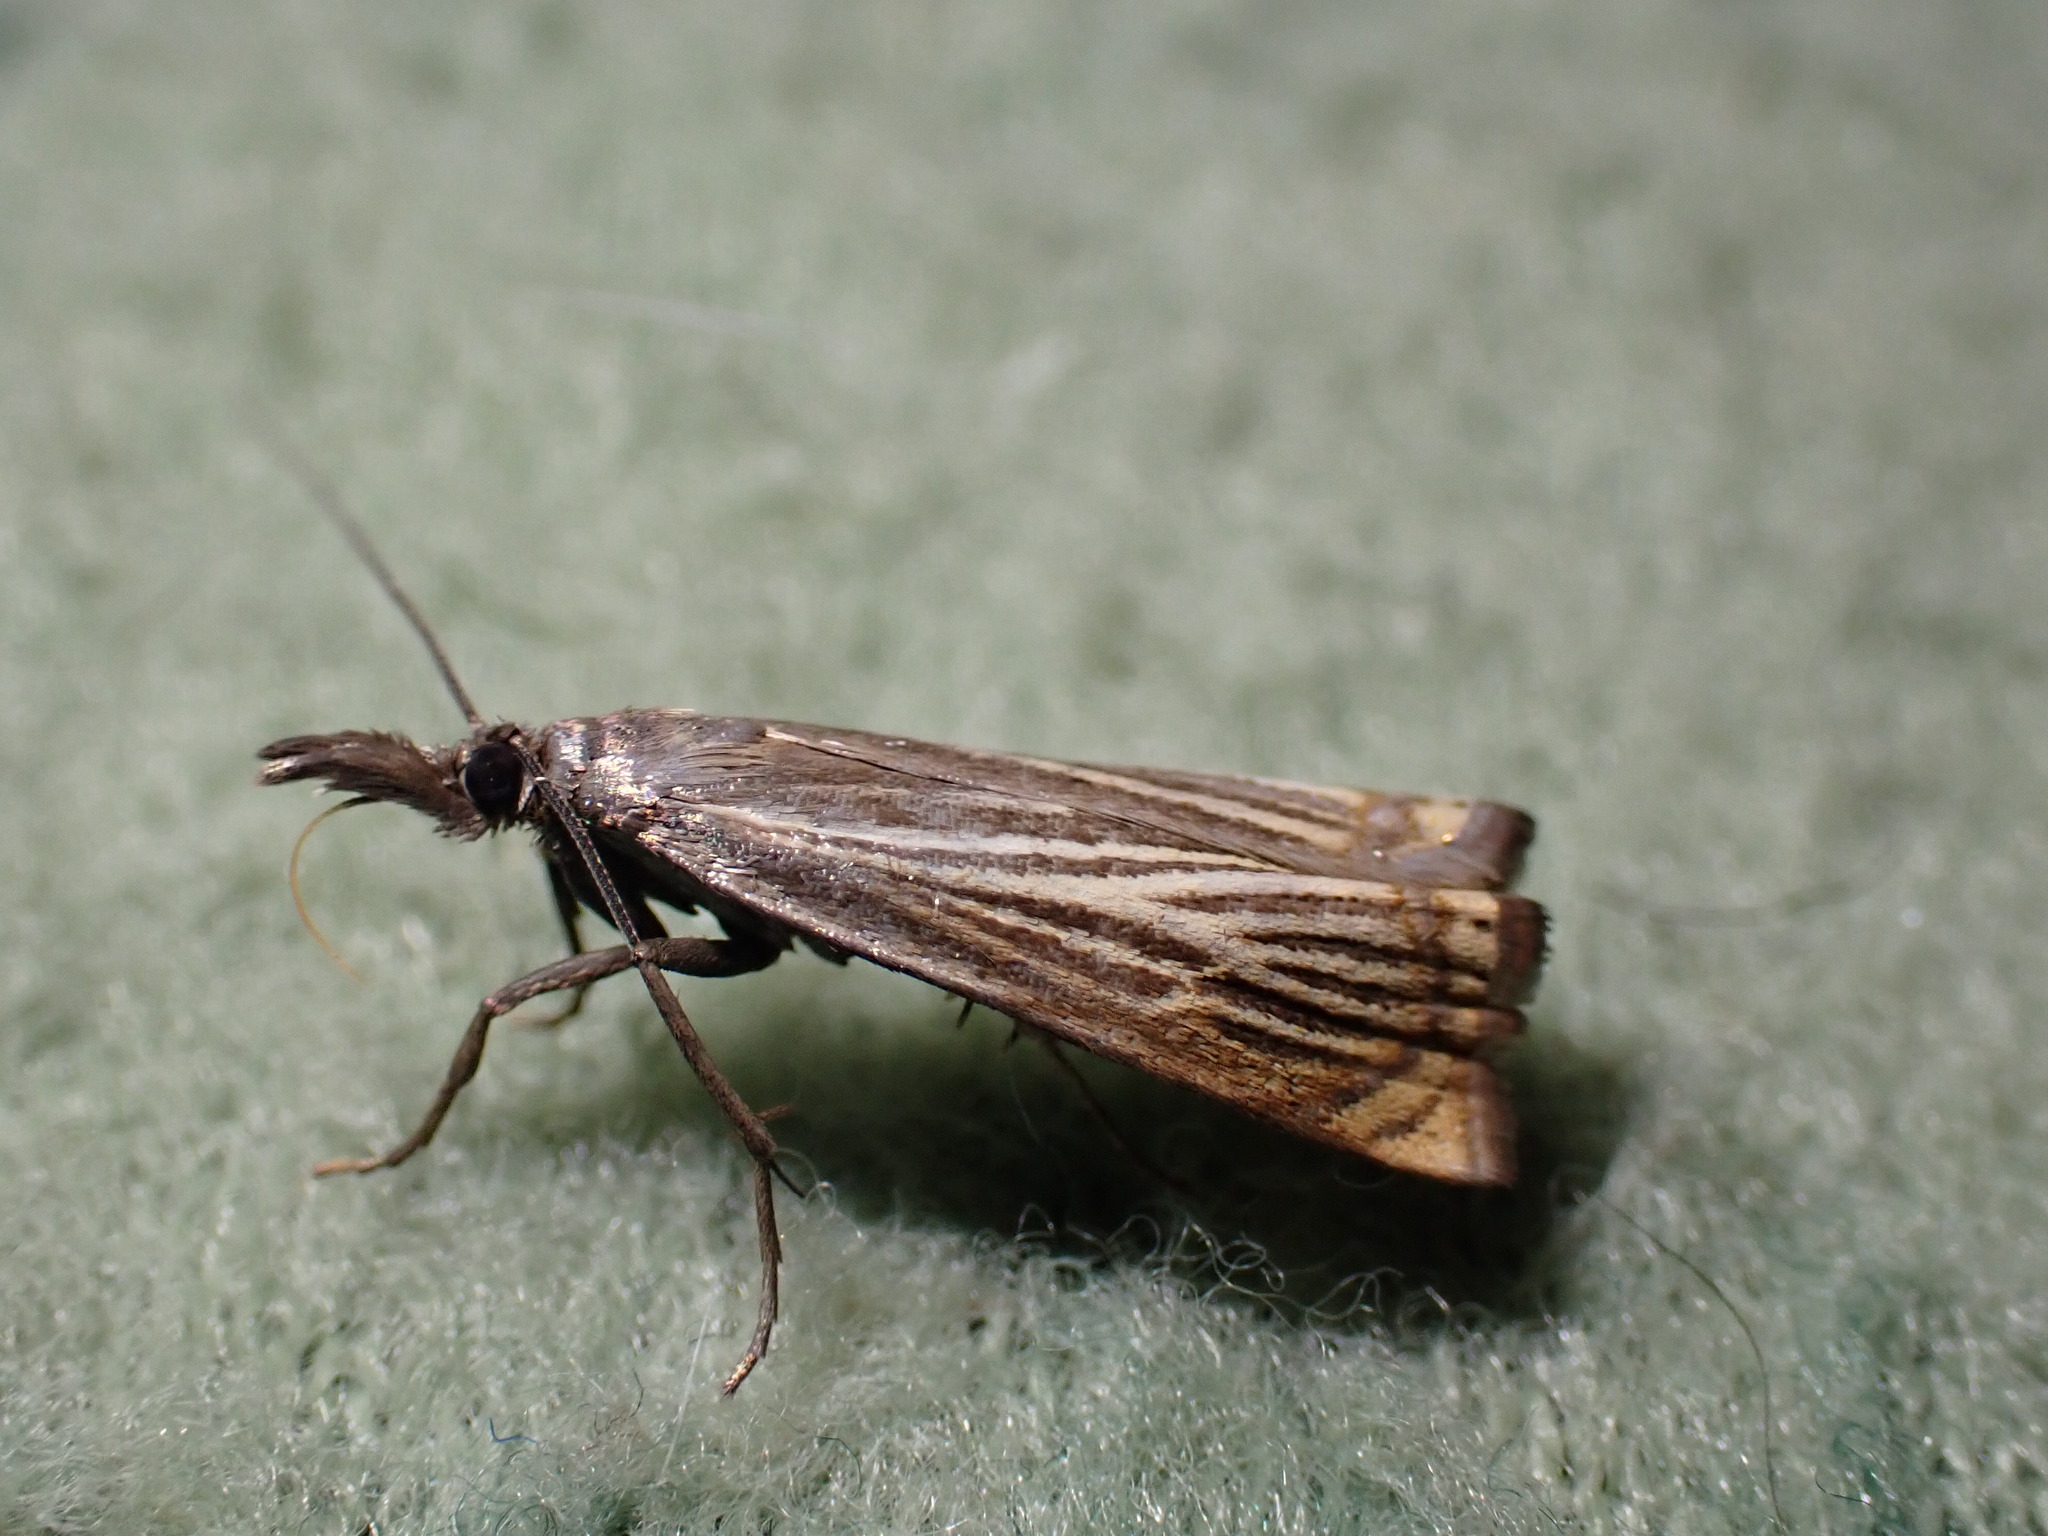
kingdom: Animalia
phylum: Arthropoda
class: Insecta
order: Lepidoptera
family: Crambidae
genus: Chrysoteuchia
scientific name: Chrysoteuchia culmella
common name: Garden grass-veneer
